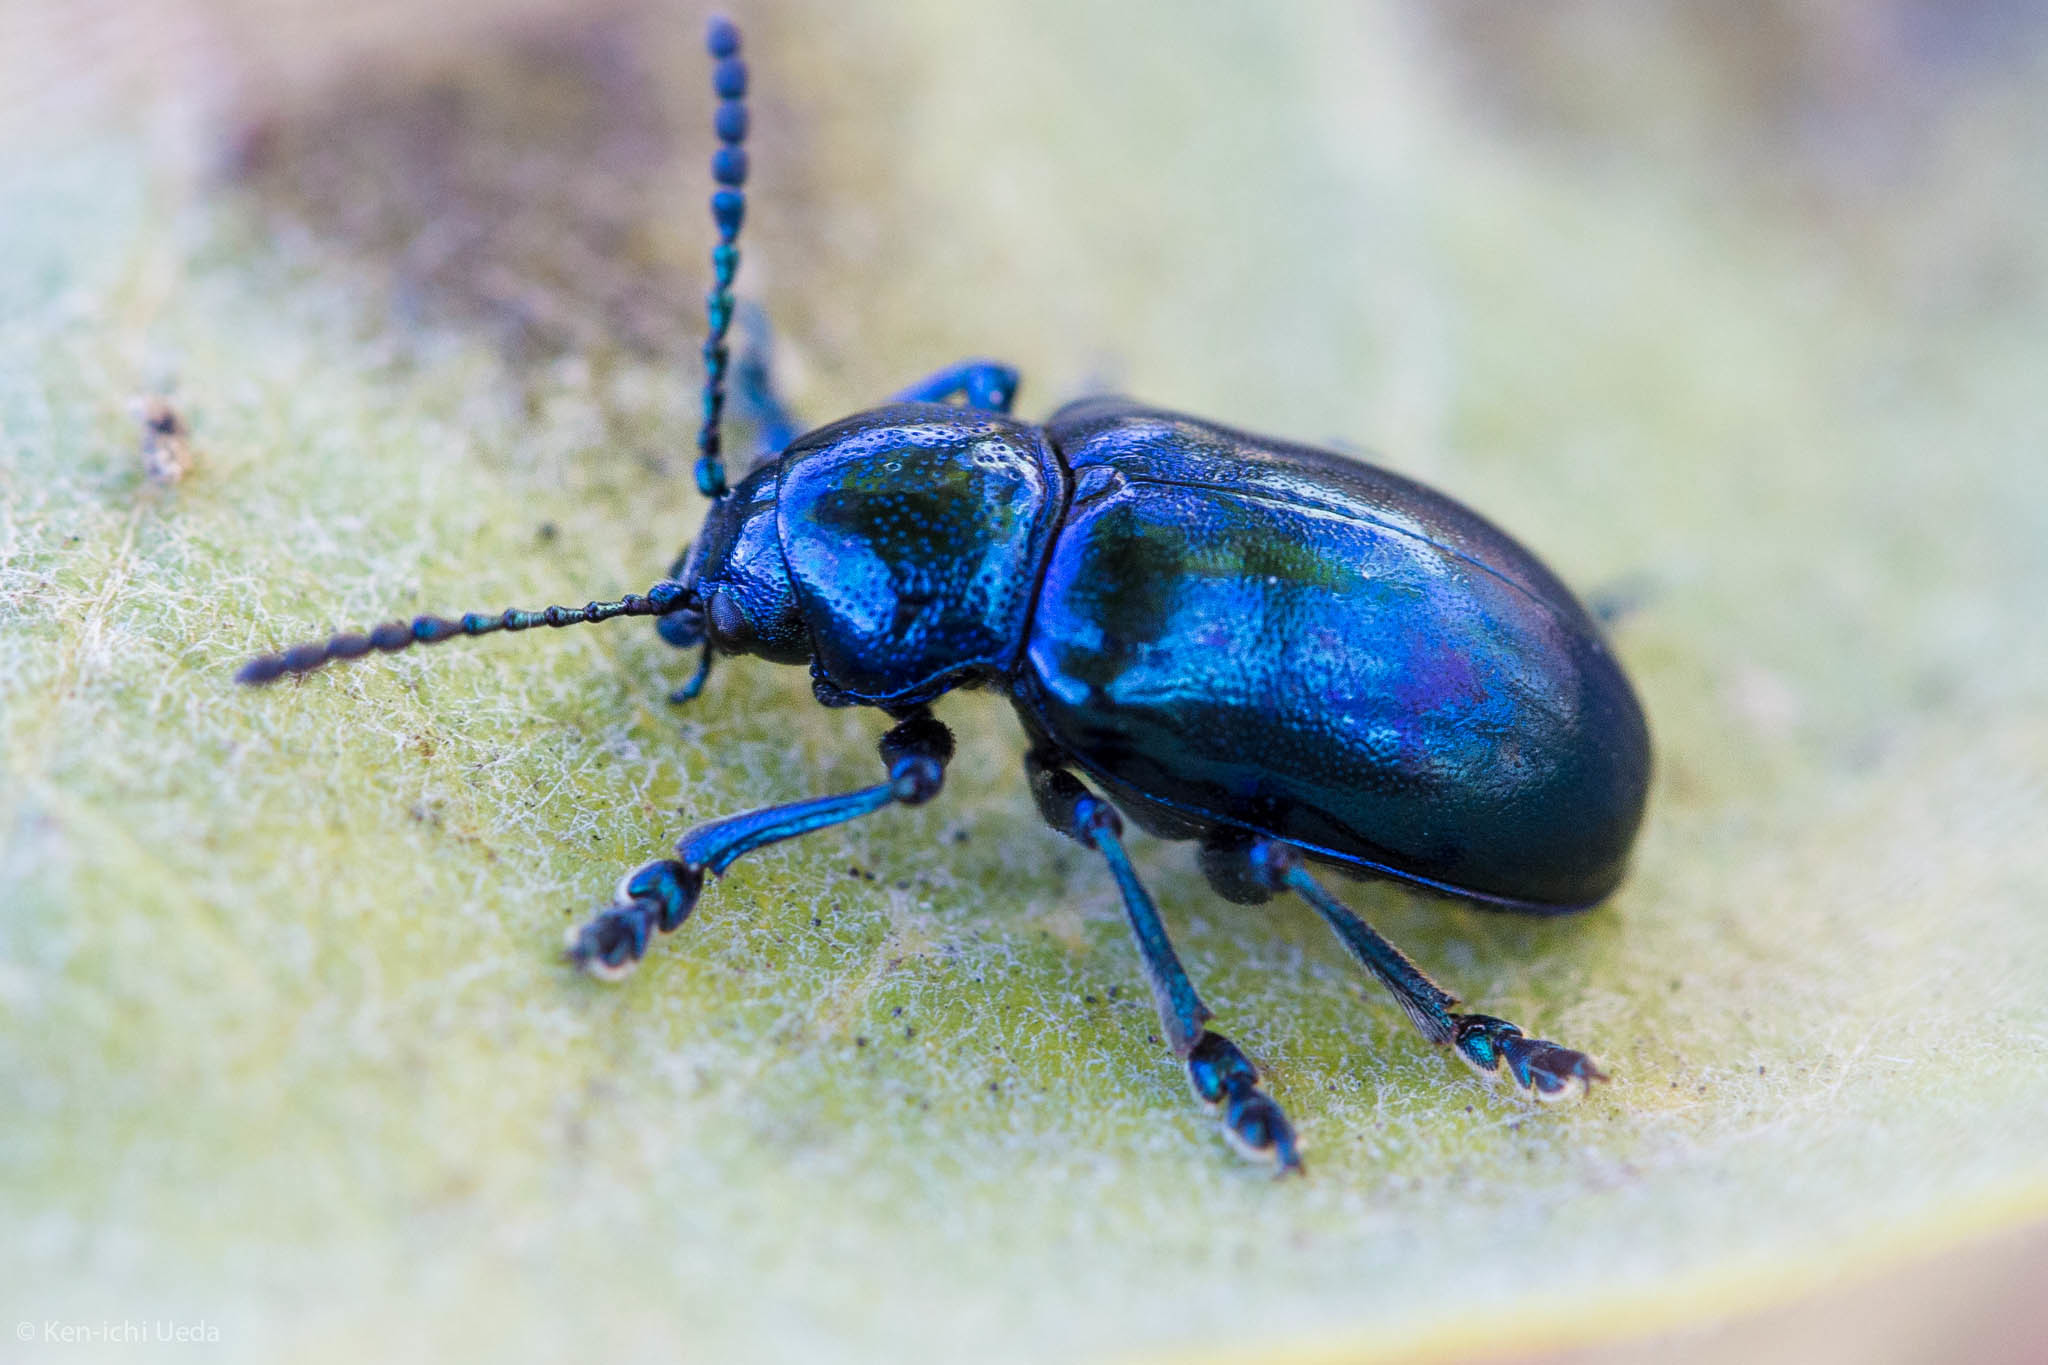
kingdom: Animalia
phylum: Arthropoda
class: Insecta
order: Coleoptera
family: Chrysomelidae
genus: Chrysochus
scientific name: Chrysochus cobaltinus
